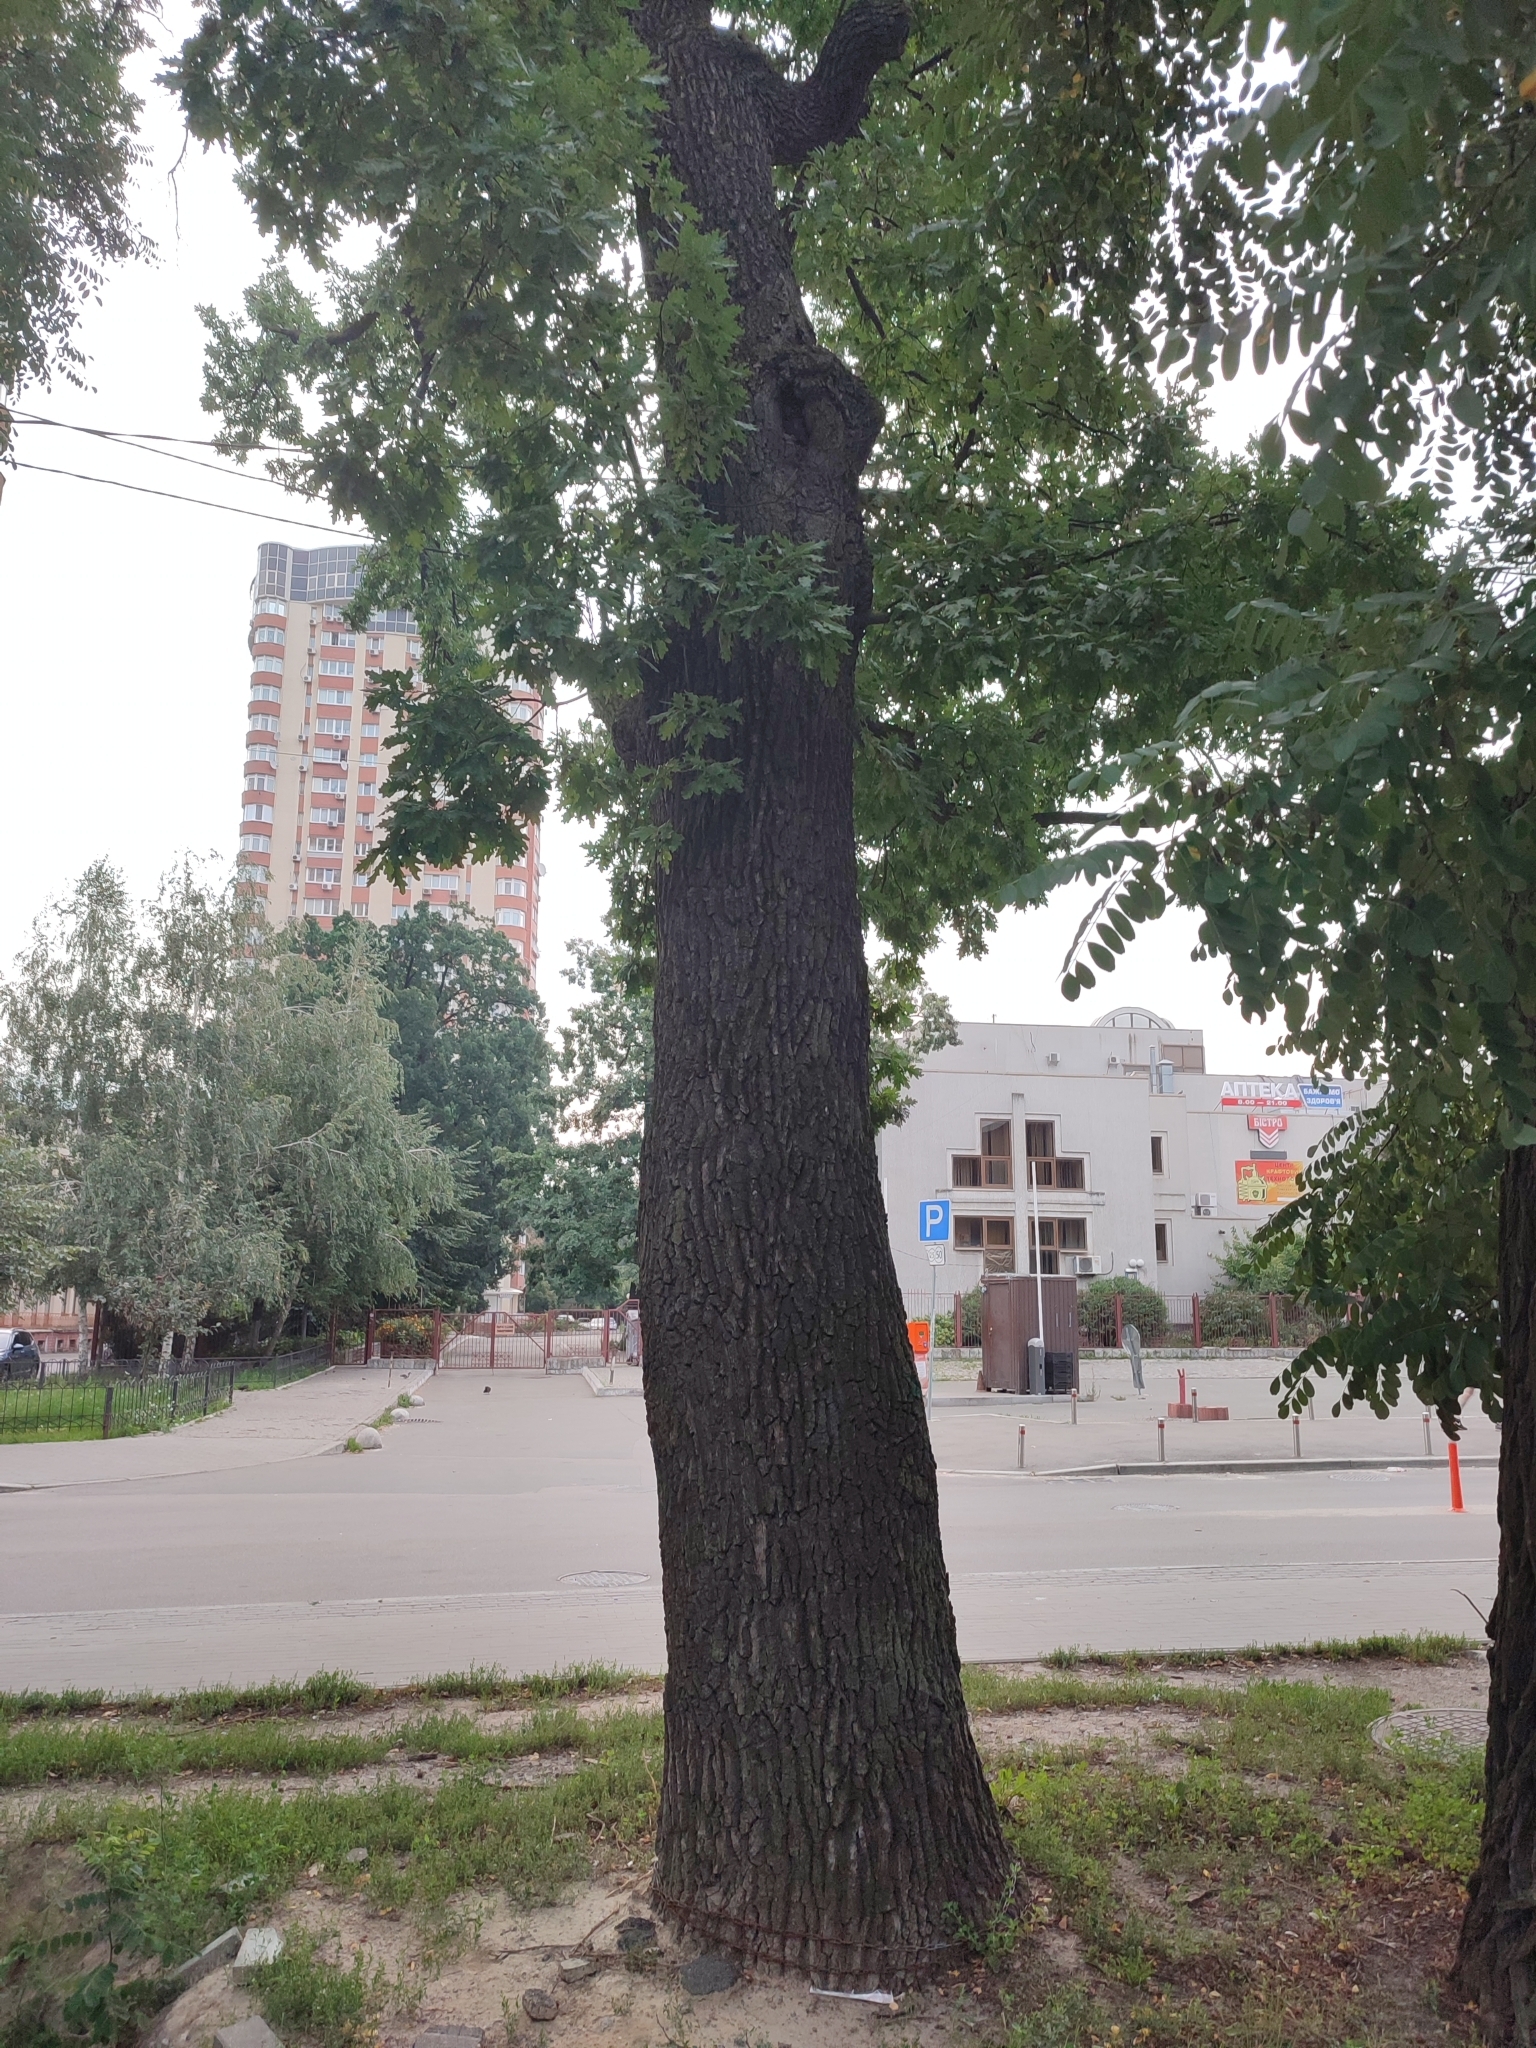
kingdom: Plantae
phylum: Tracheophyta
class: Magnoliopsida
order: Fagales
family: Fagaceae
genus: Quercus
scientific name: Quercus robur
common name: Pedunculate oak
